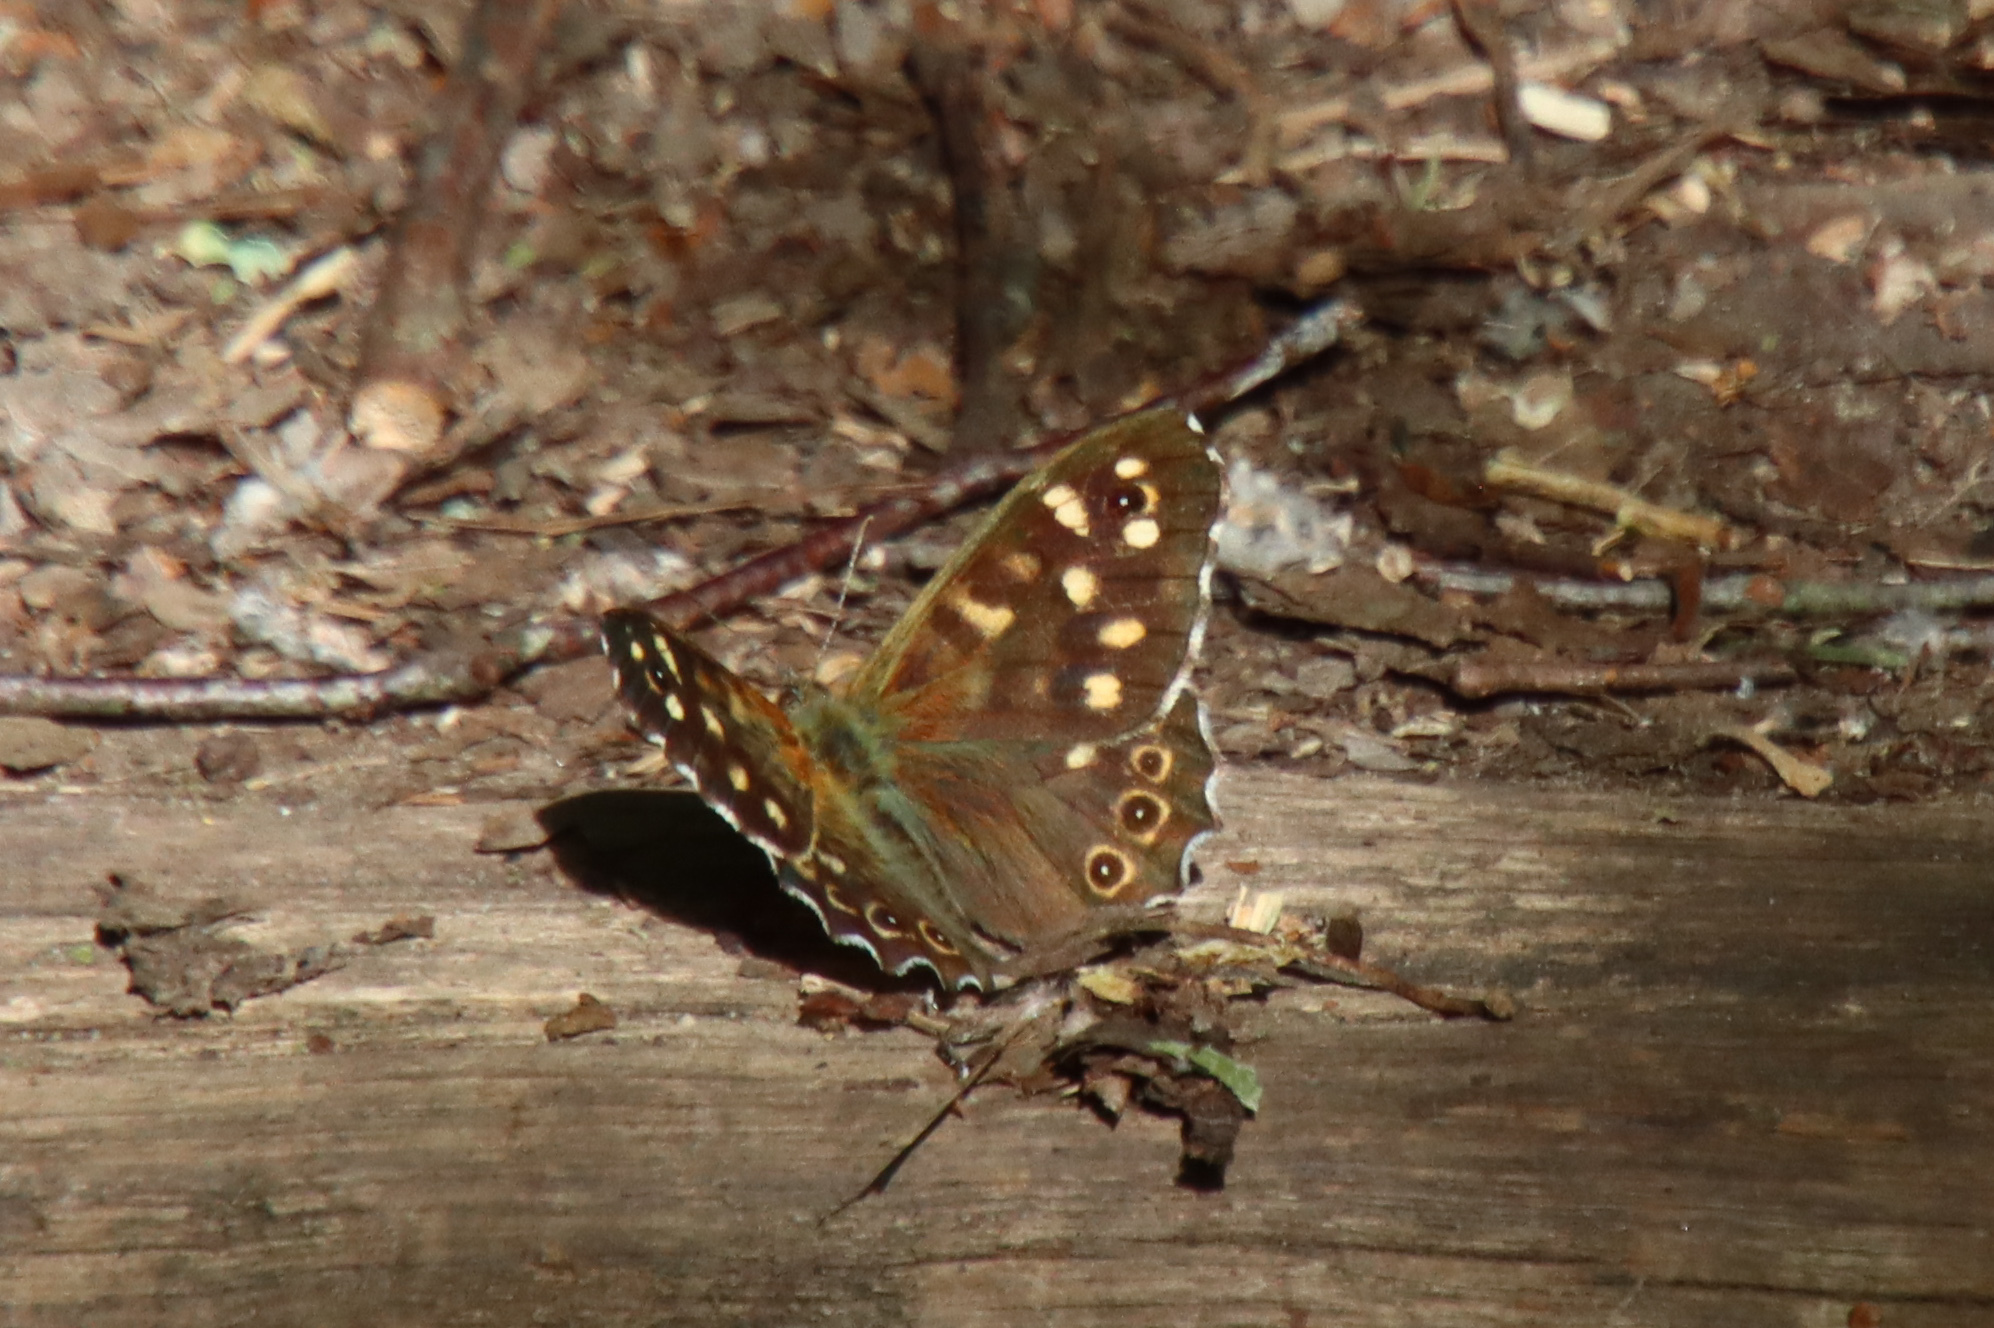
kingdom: Animalia
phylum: Arthropoda
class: Insecta
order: Lepidoptera
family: Nymphalidae
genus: Pararge
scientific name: Pararge aegeria
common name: Speckled wood
